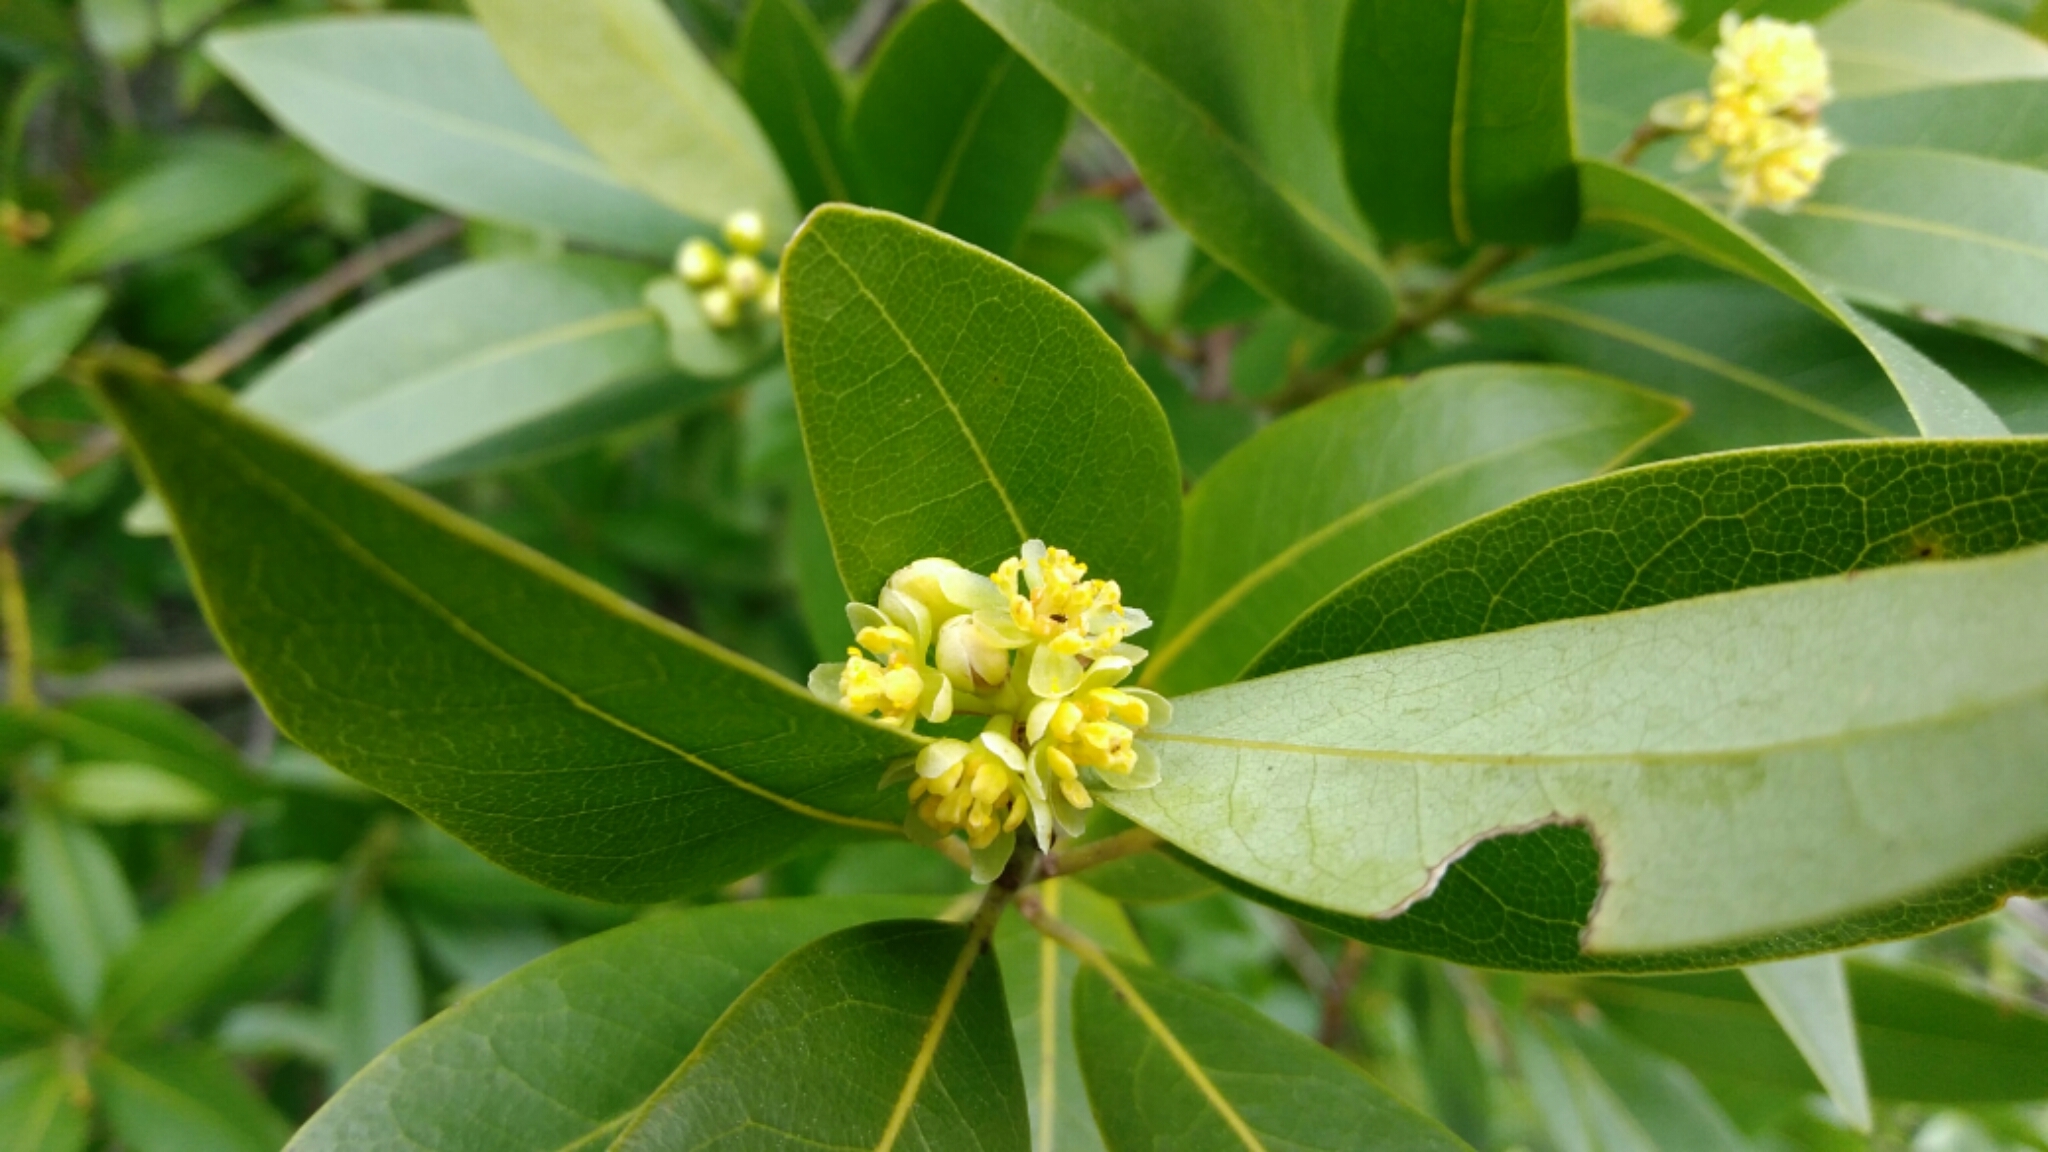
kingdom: Plantae
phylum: Tracheophyta
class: Magnoliopsida
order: Laurales
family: Lauraceae
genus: Umbellularia
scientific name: Umbellularia californica
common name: California bay
